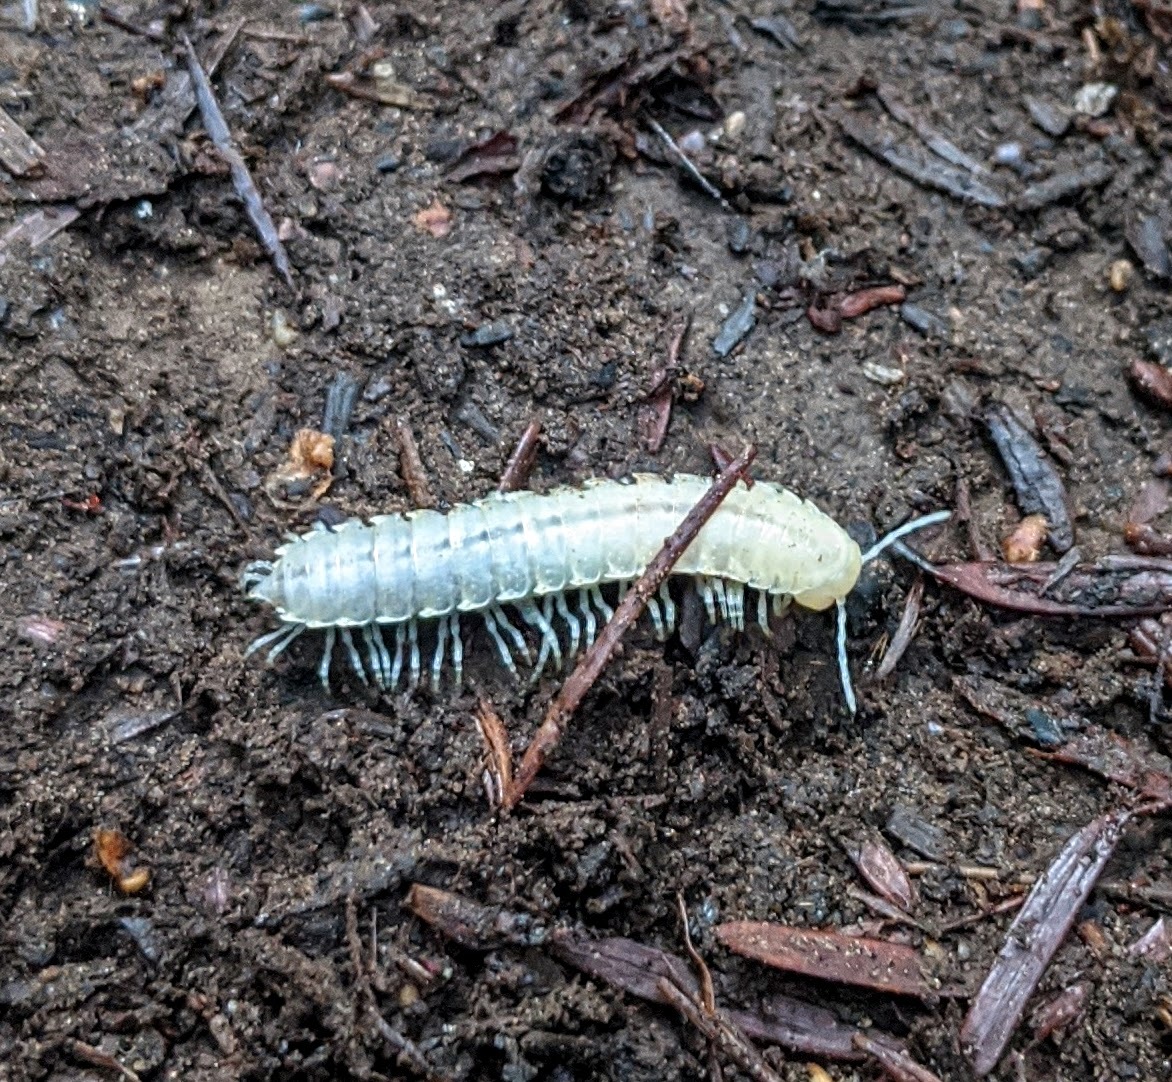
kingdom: Animalia
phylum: Arthropoda
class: Diplopoda
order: Polydesmida
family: Xystodesmidae
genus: Xystocheir
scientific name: Xystocheir dissecta
